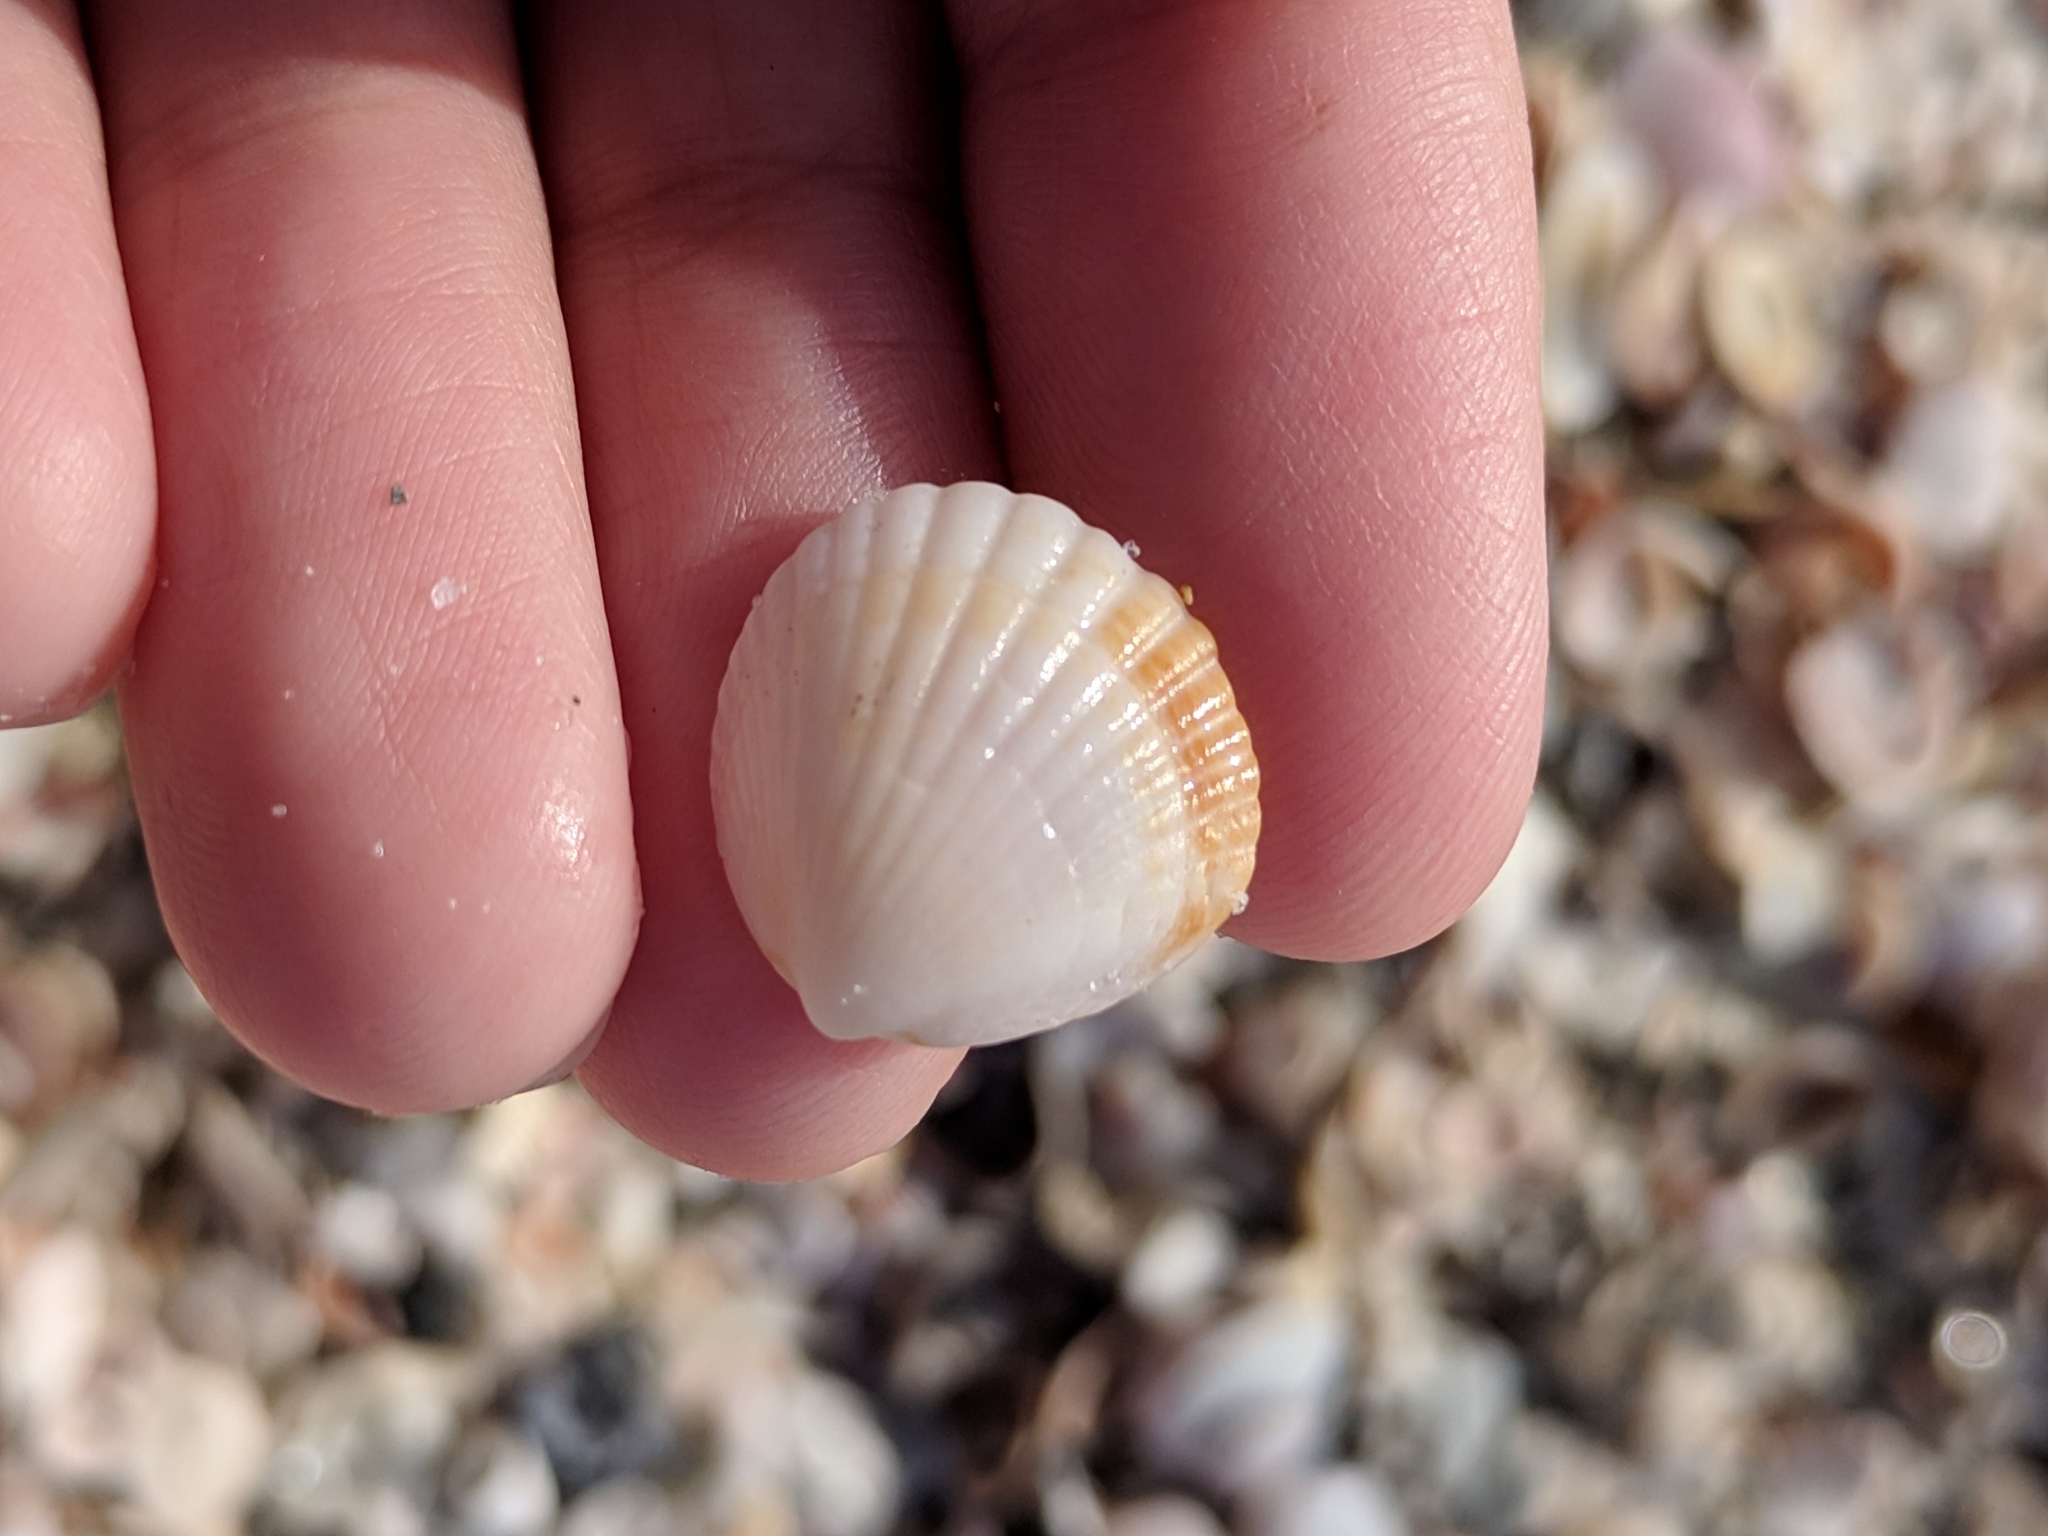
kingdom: Animalia
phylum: Mollusca
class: Bivalvia
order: Arcida
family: Glycymerididae
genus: Tucetona
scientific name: Tucetona pectinata
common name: Comb bittersweet
